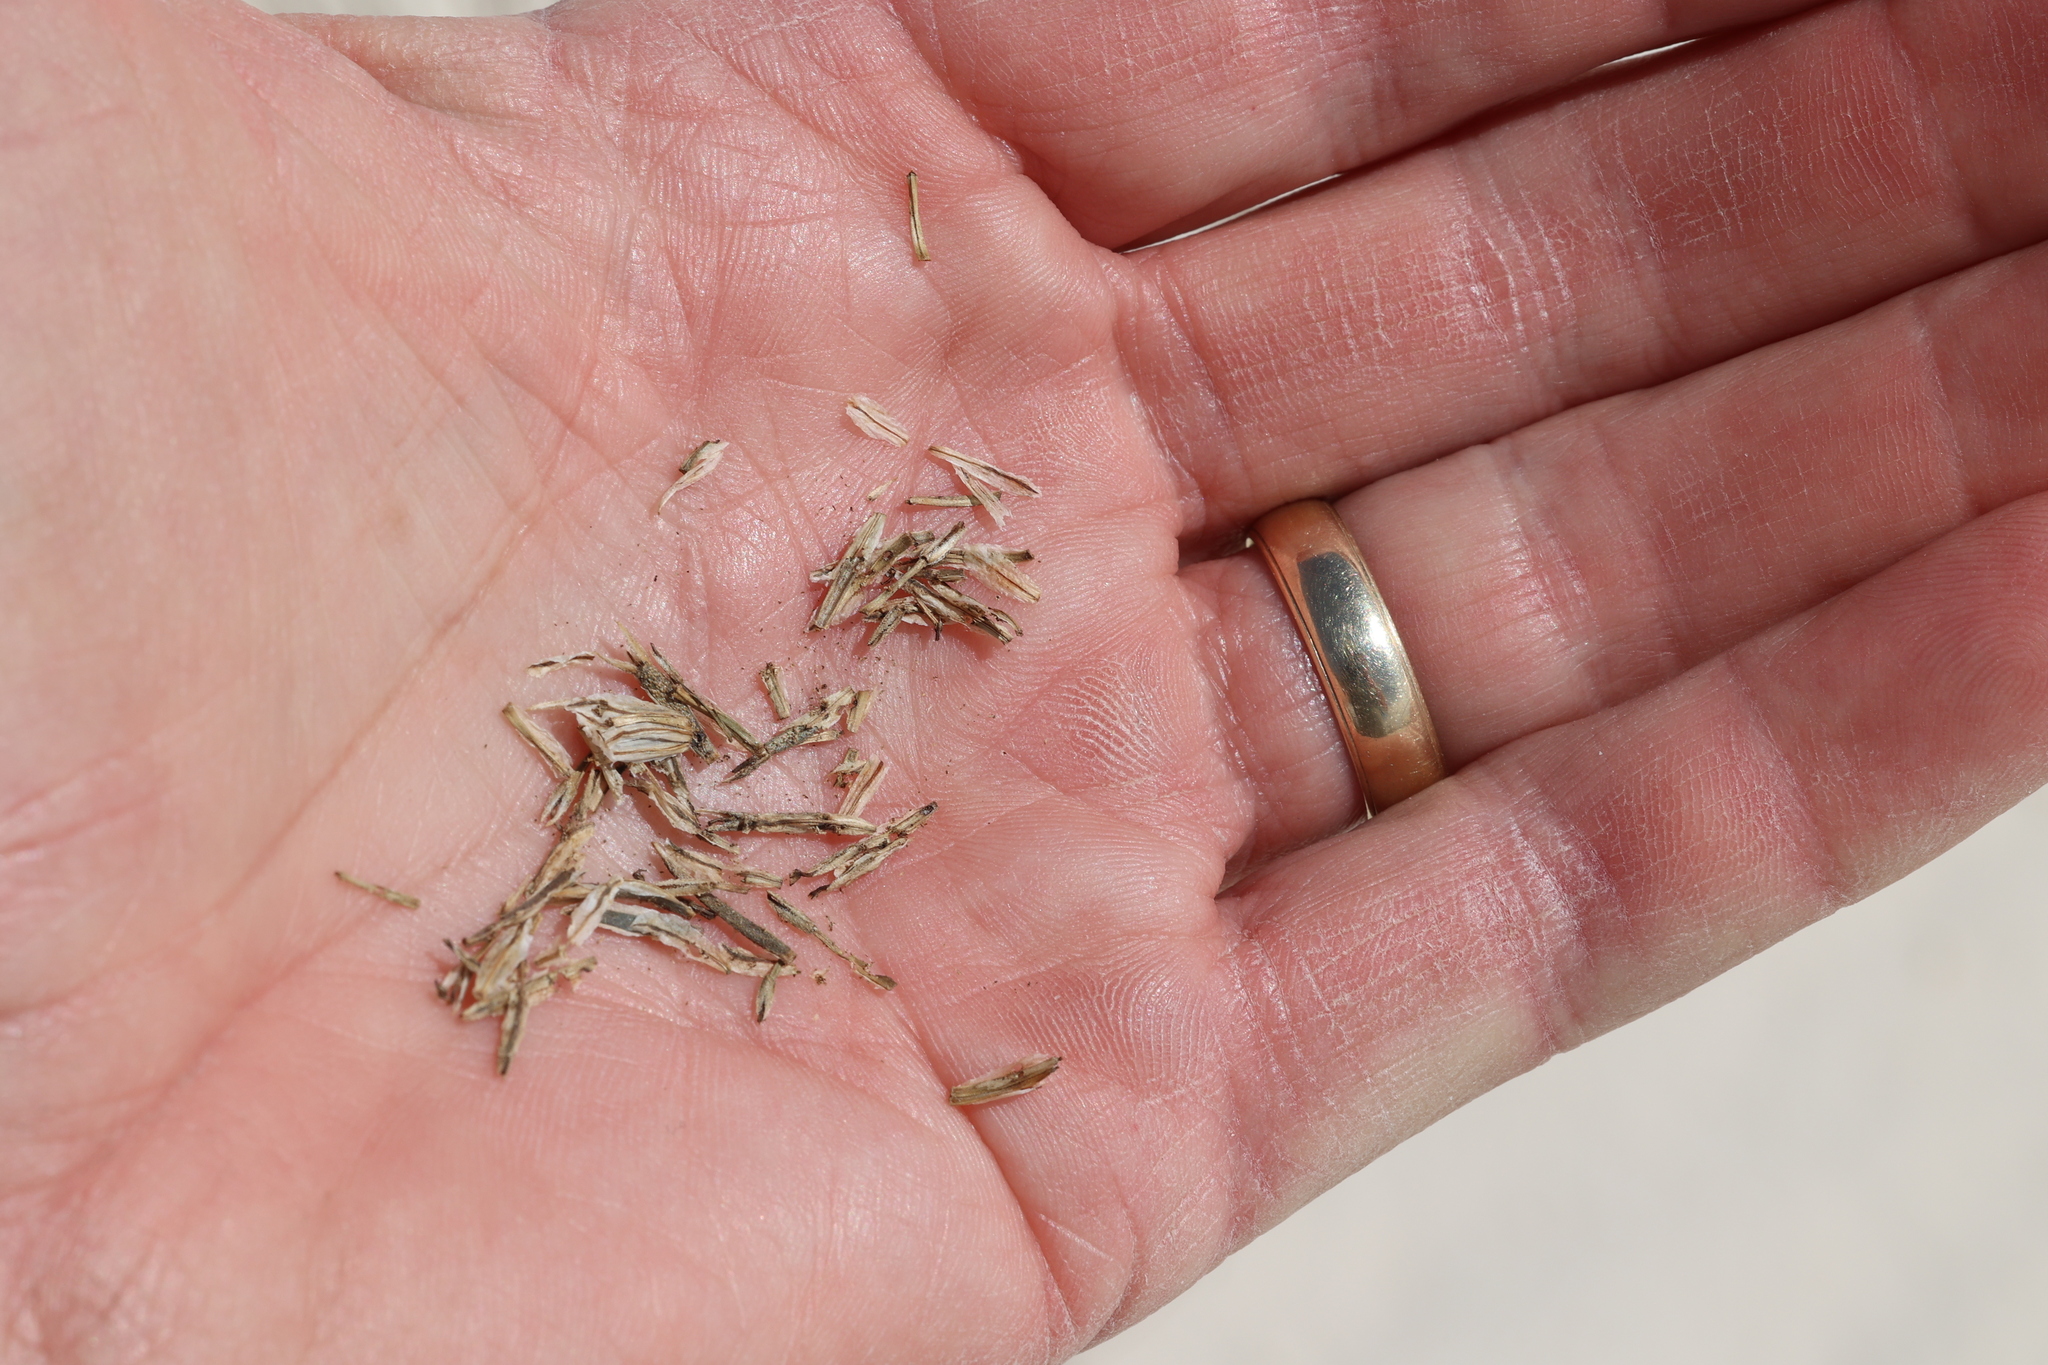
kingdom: Plantae
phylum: Tracheophyta
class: Magnoliopsida
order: Asterales
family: Asteraceae
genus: Thelesperma
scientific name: Thelesperma megapotamicum
